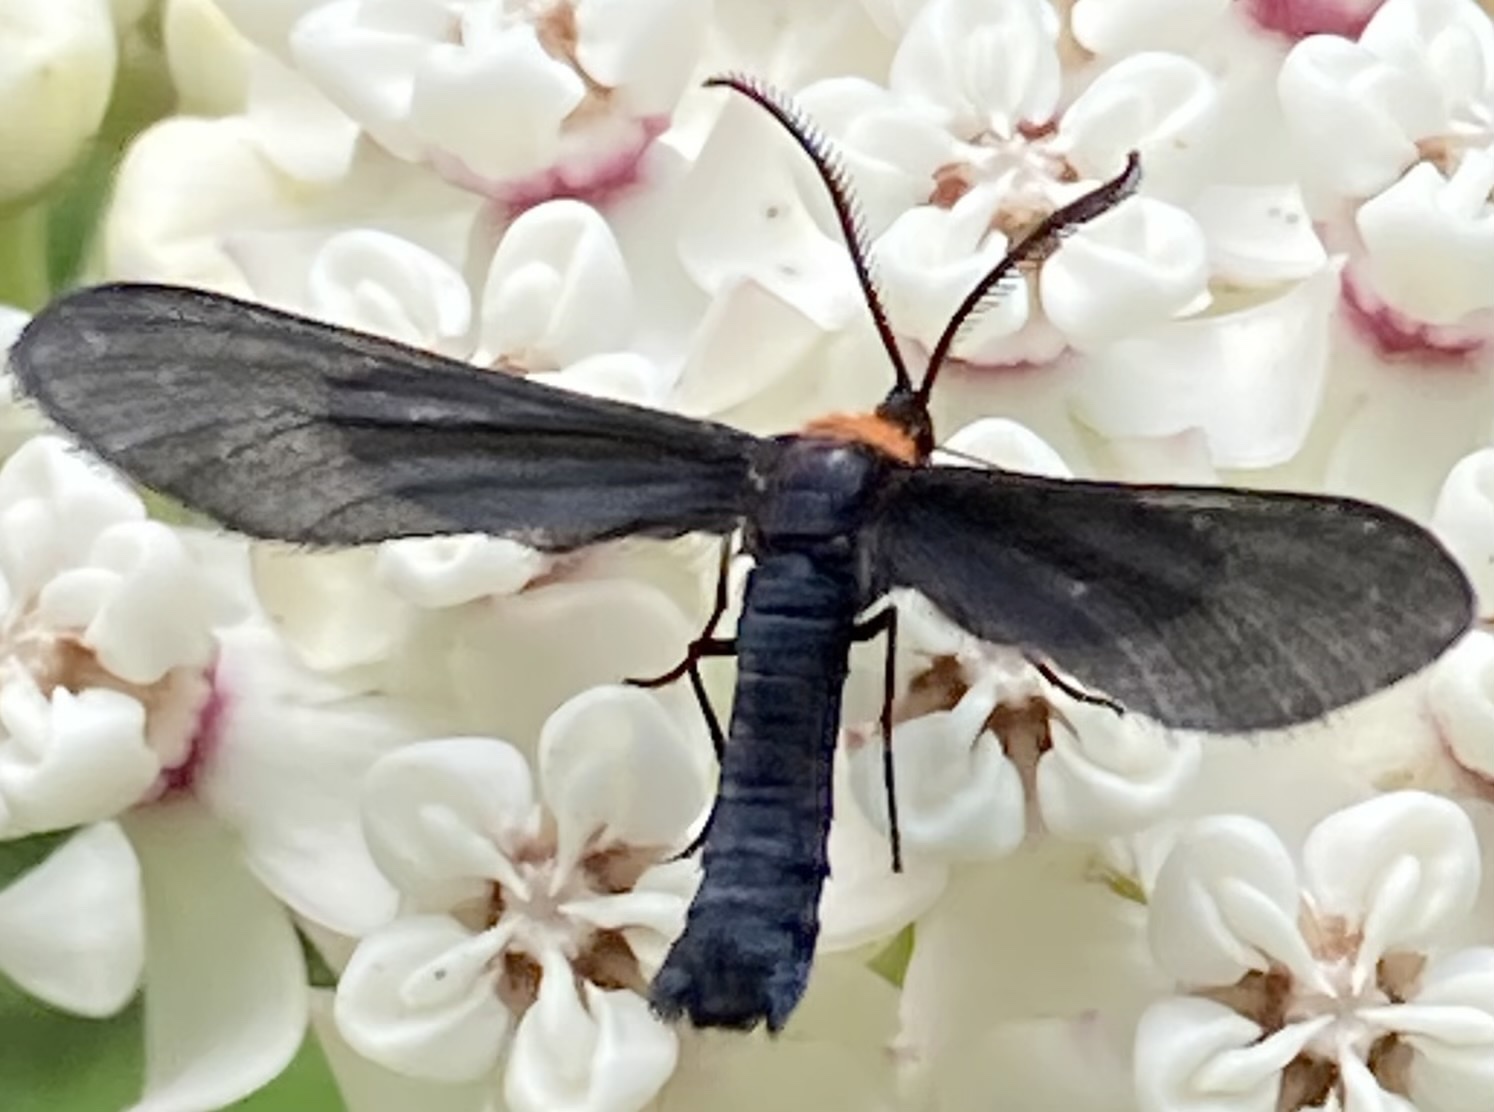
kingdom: Animalia
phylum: Arthropoda
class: Insecta
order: Lepidoptera
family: Zygaenidae
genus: Harrisina
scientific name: Harrisina americana
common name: Grapeleaf skeletonizer moth
